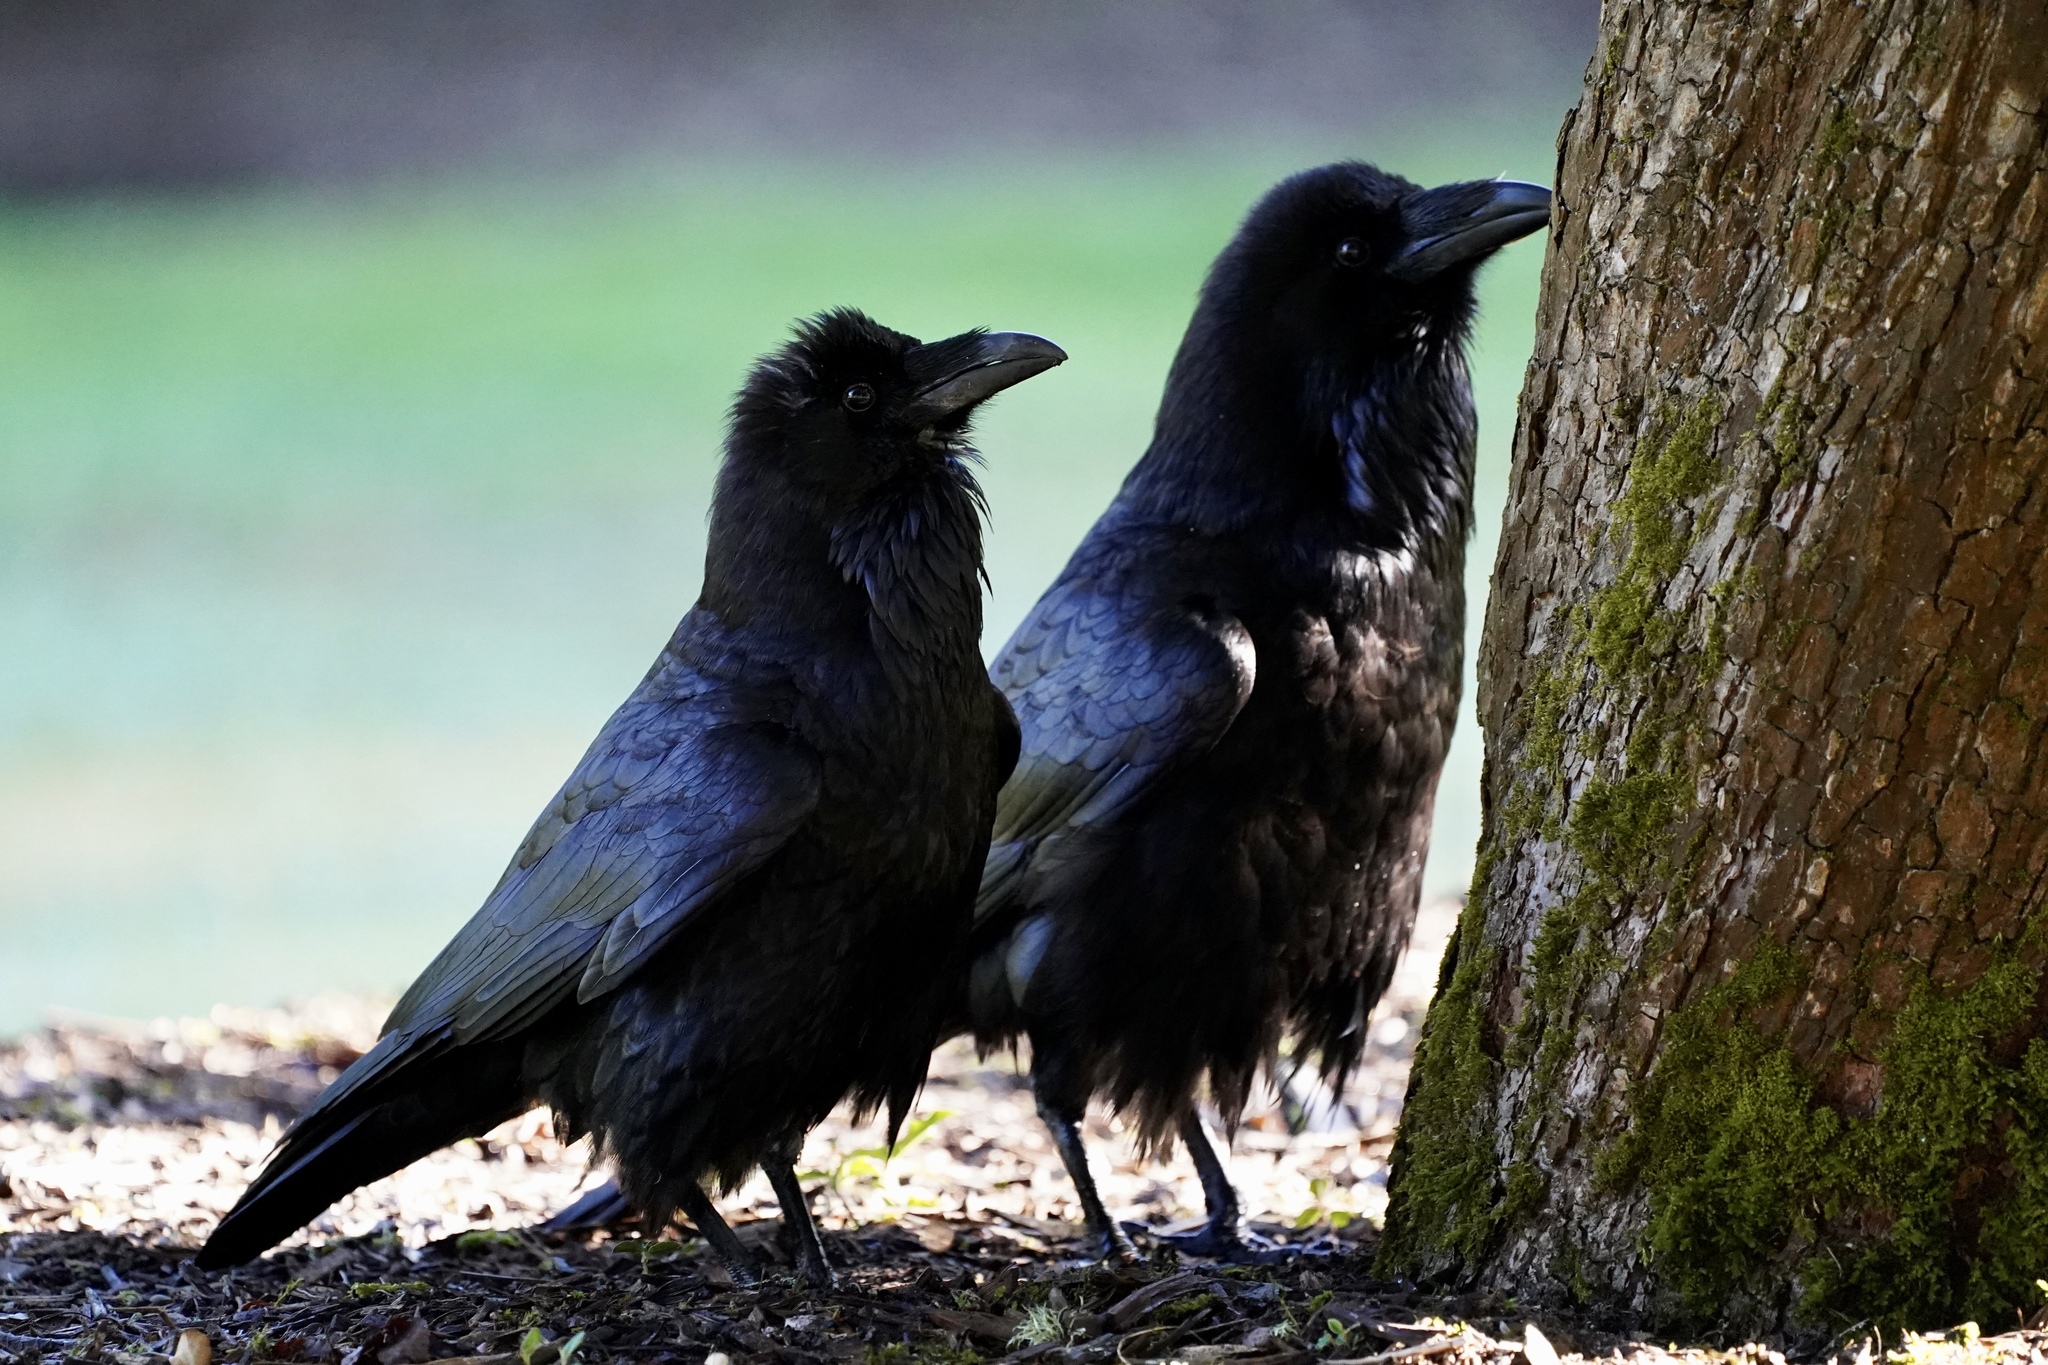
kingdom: Animalia
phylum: Chordata
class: Aves
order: Passeriformes
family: Corvidae
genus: Corvus
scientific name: Corvus corax
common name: Common raven
